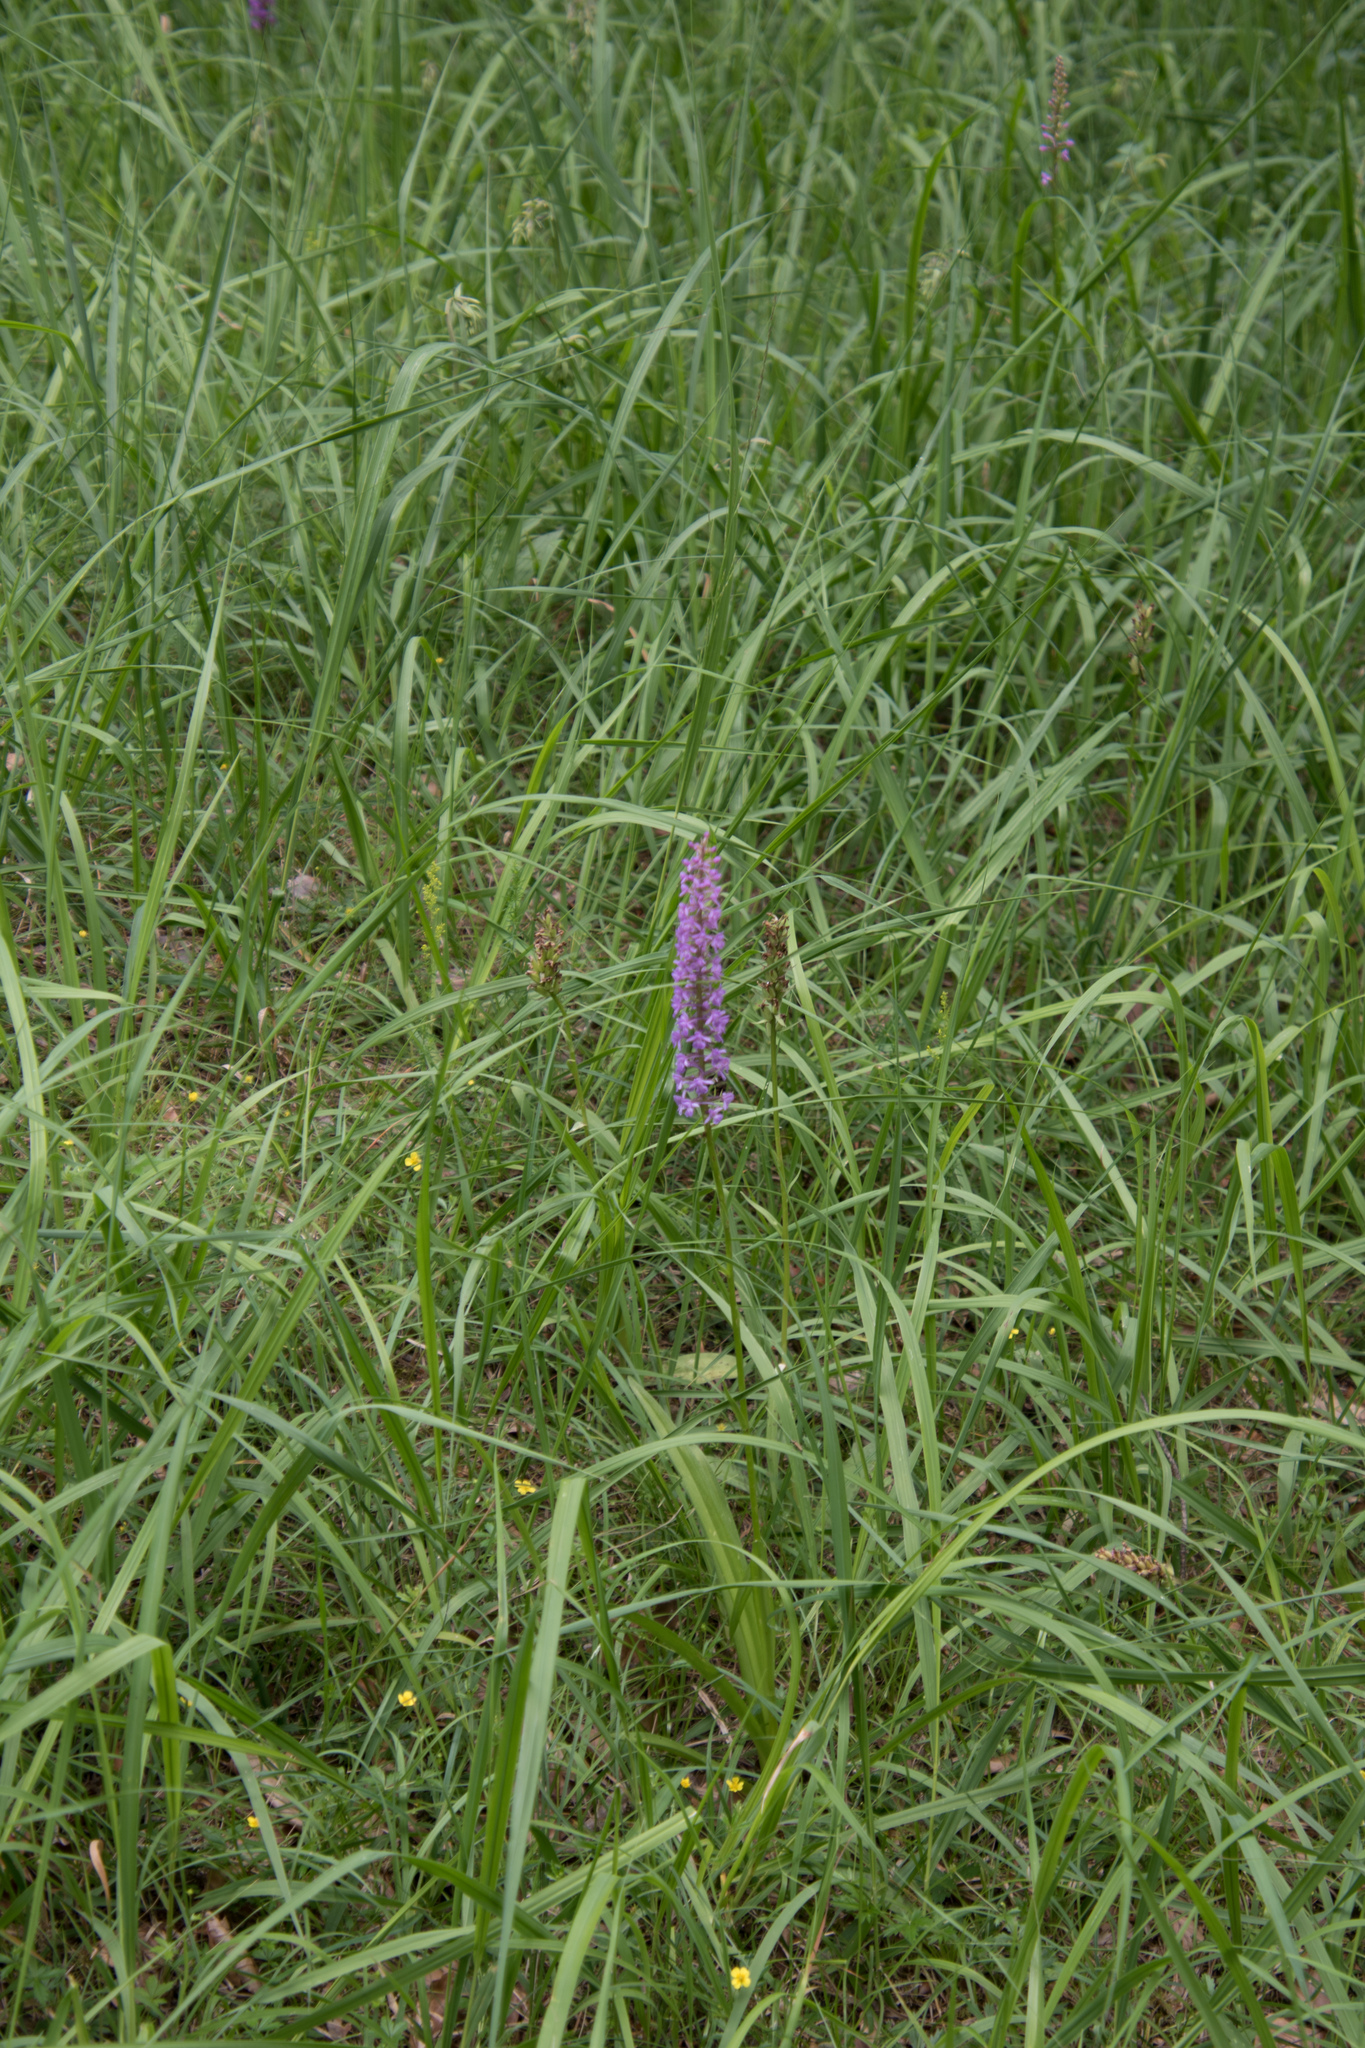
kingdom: Plantae
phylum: Tracheophyta
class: Liliopsida
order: Asparagales
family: Orchidaceae
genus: Gymnadenia
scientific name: Gymnadenia conopsea
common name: Fragrant orchid
